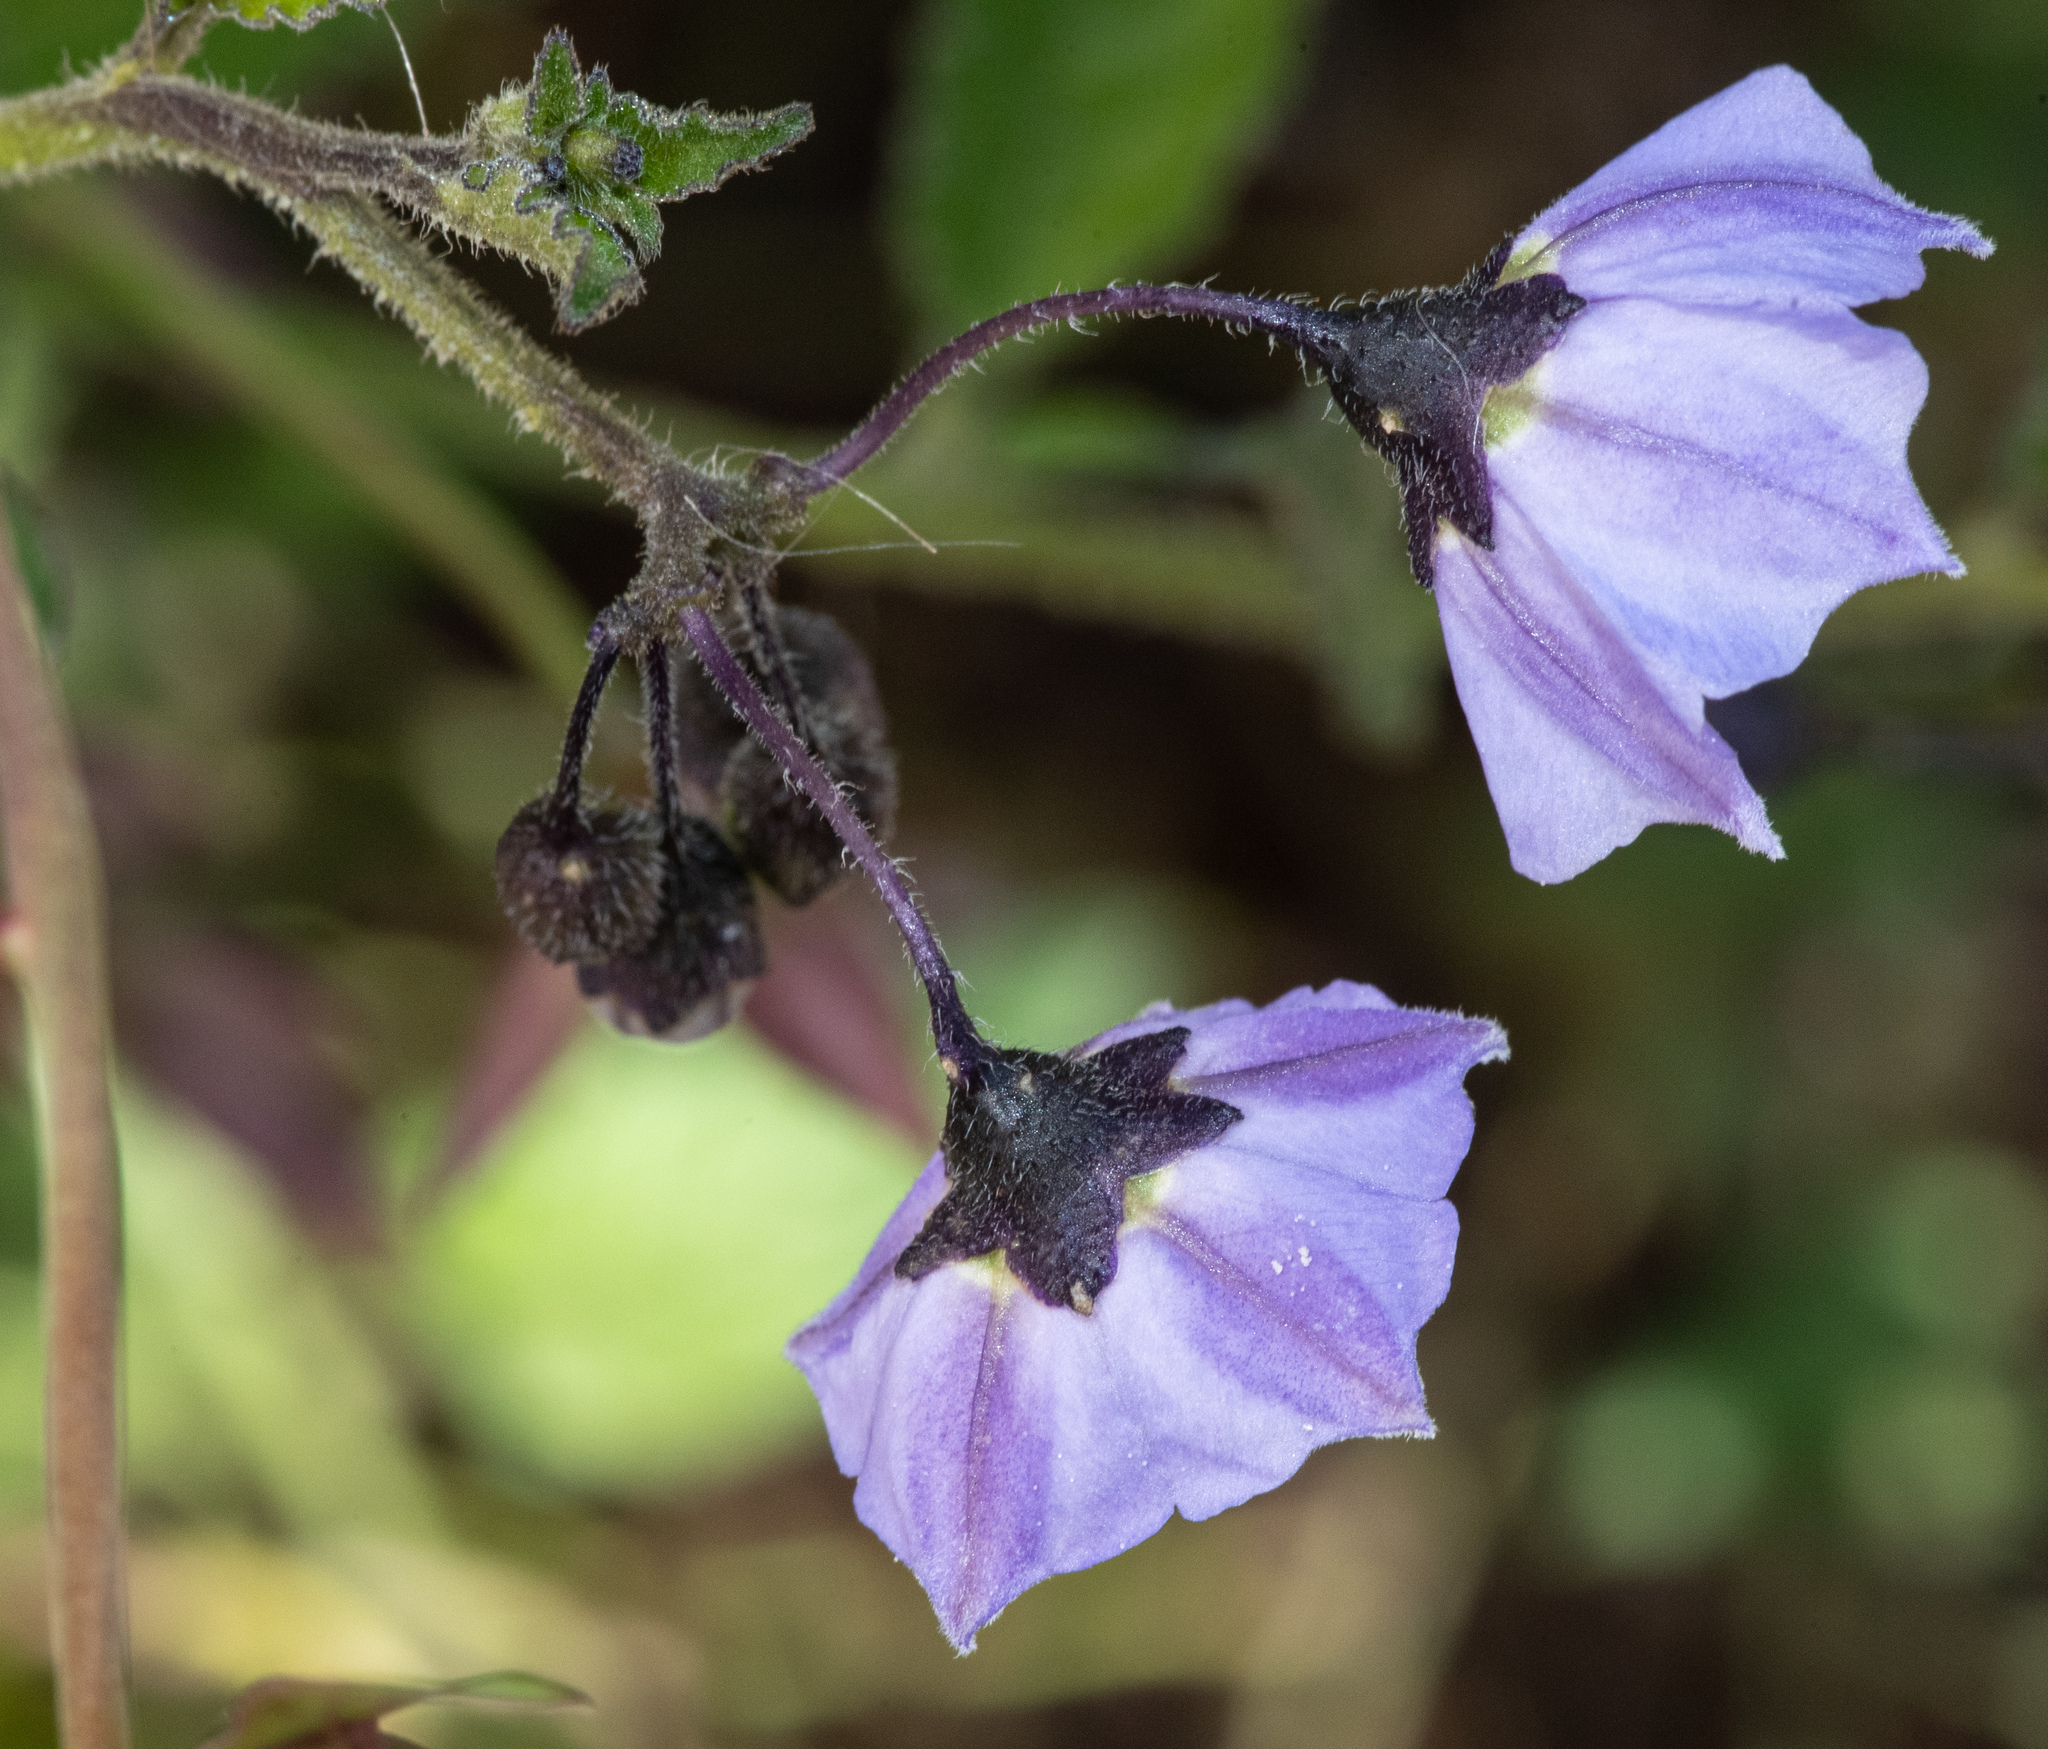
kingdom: Plantae
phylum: Tracheophyta
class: Magnoliopsida
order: Solanales
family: Solanaceae
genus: Solanum
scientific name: Solanum umbelliferum
